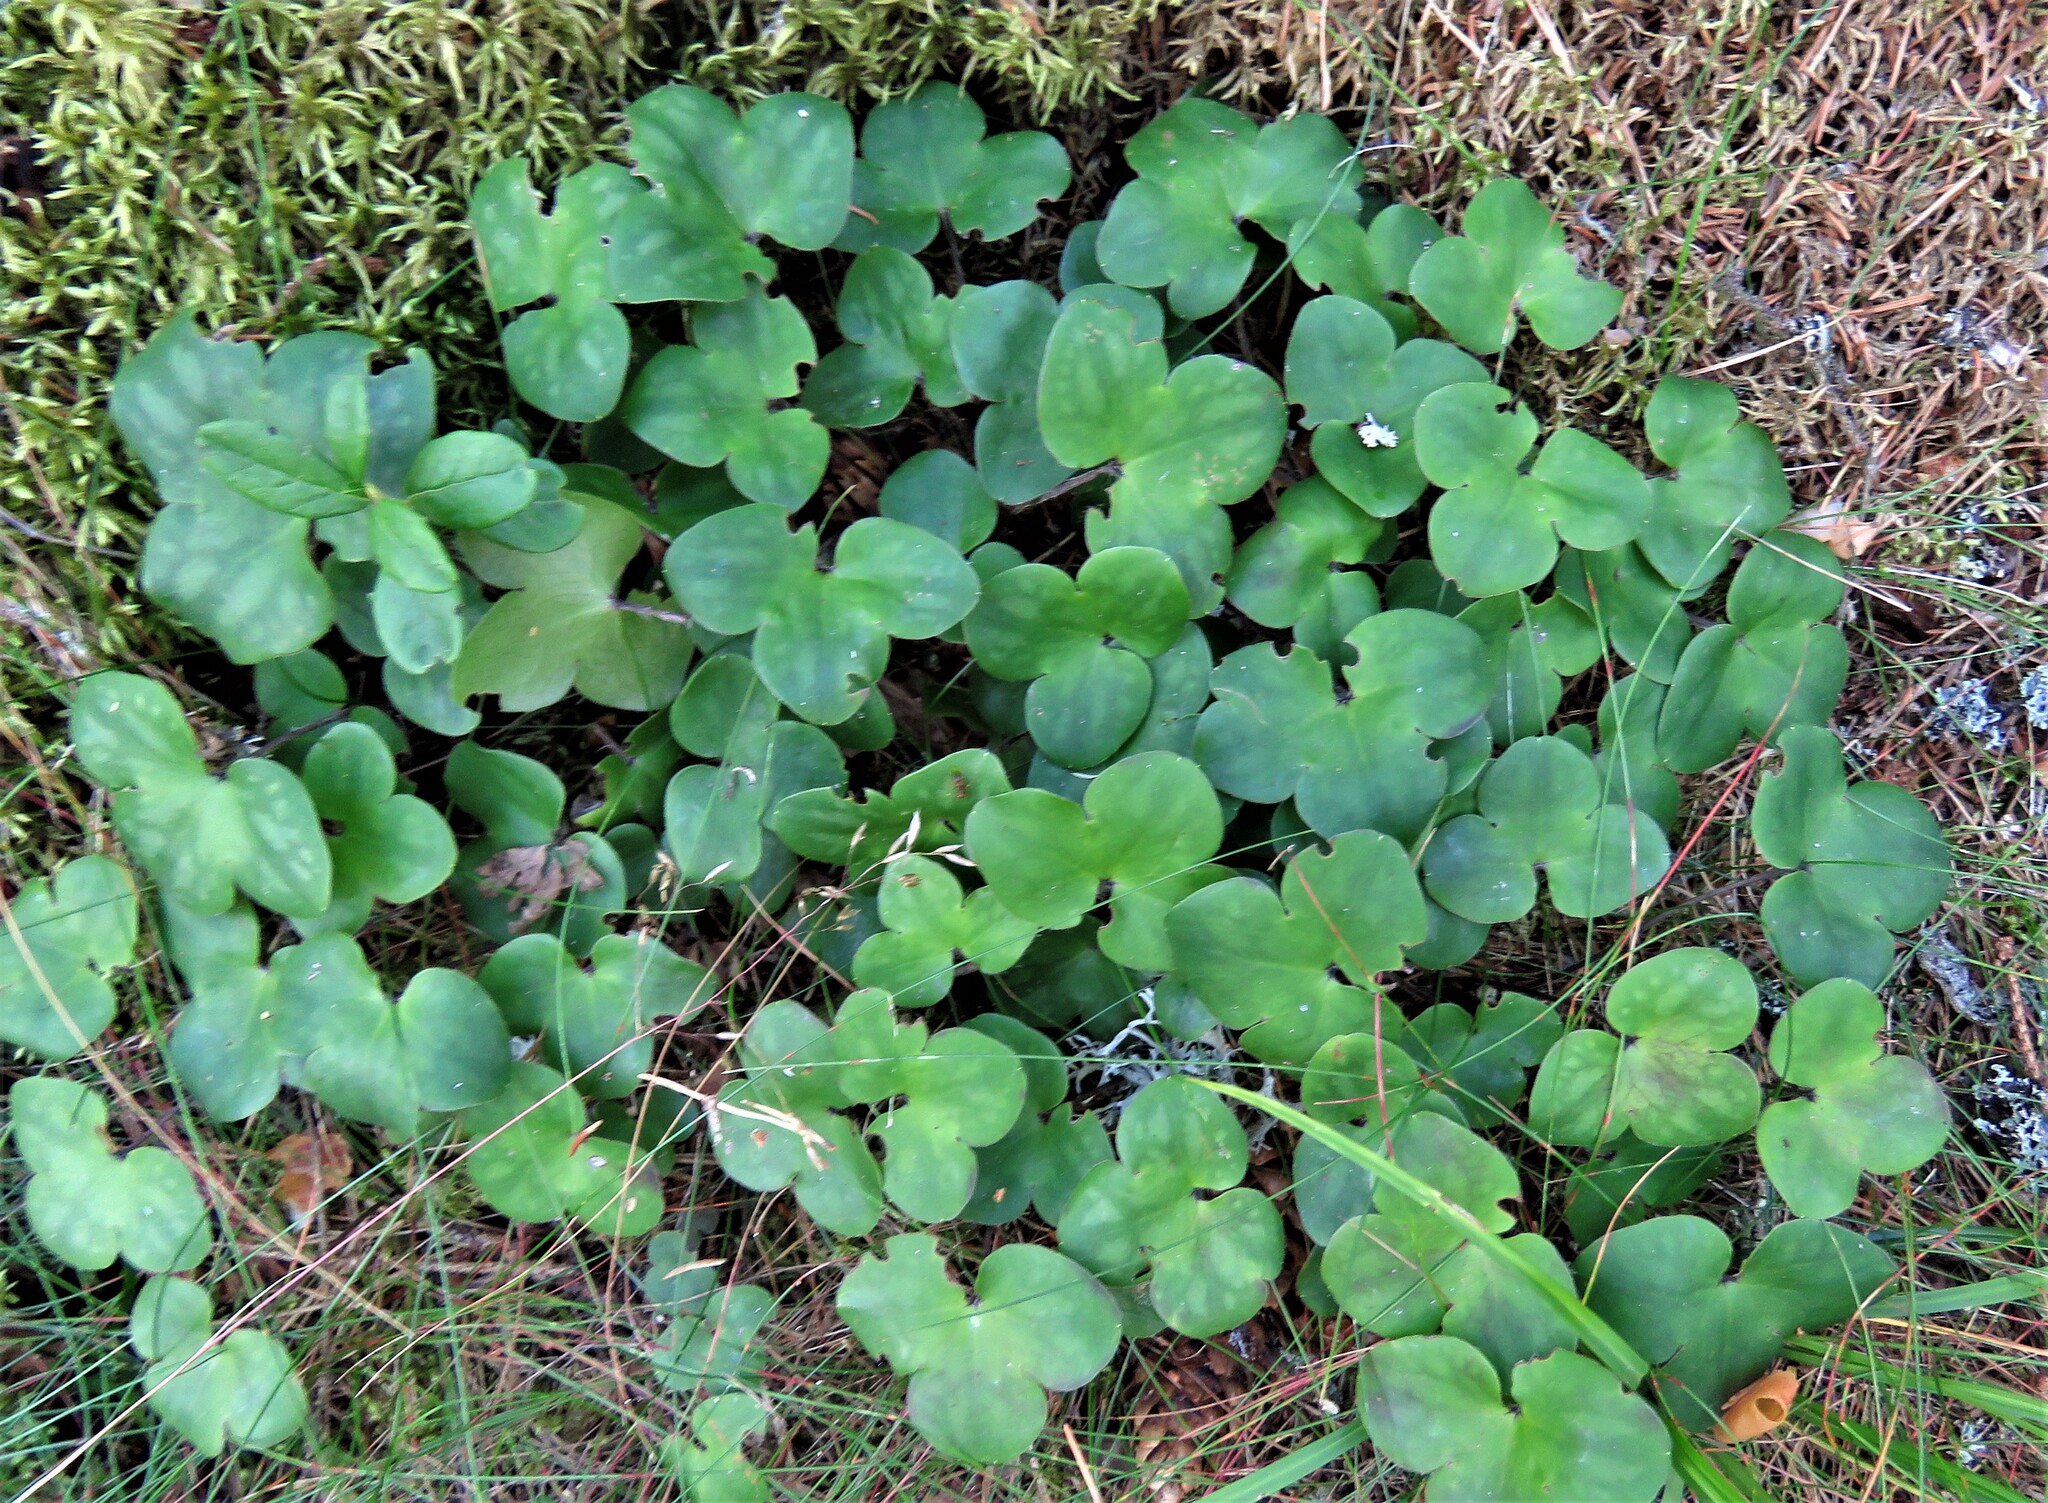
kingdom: Plantae
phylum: Tracheophyta
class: Magnoliopsida
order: Ranunculales
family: Ranunculaceae
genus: Hepatica
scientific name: Hepatica nobilis
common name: Liverleaf
